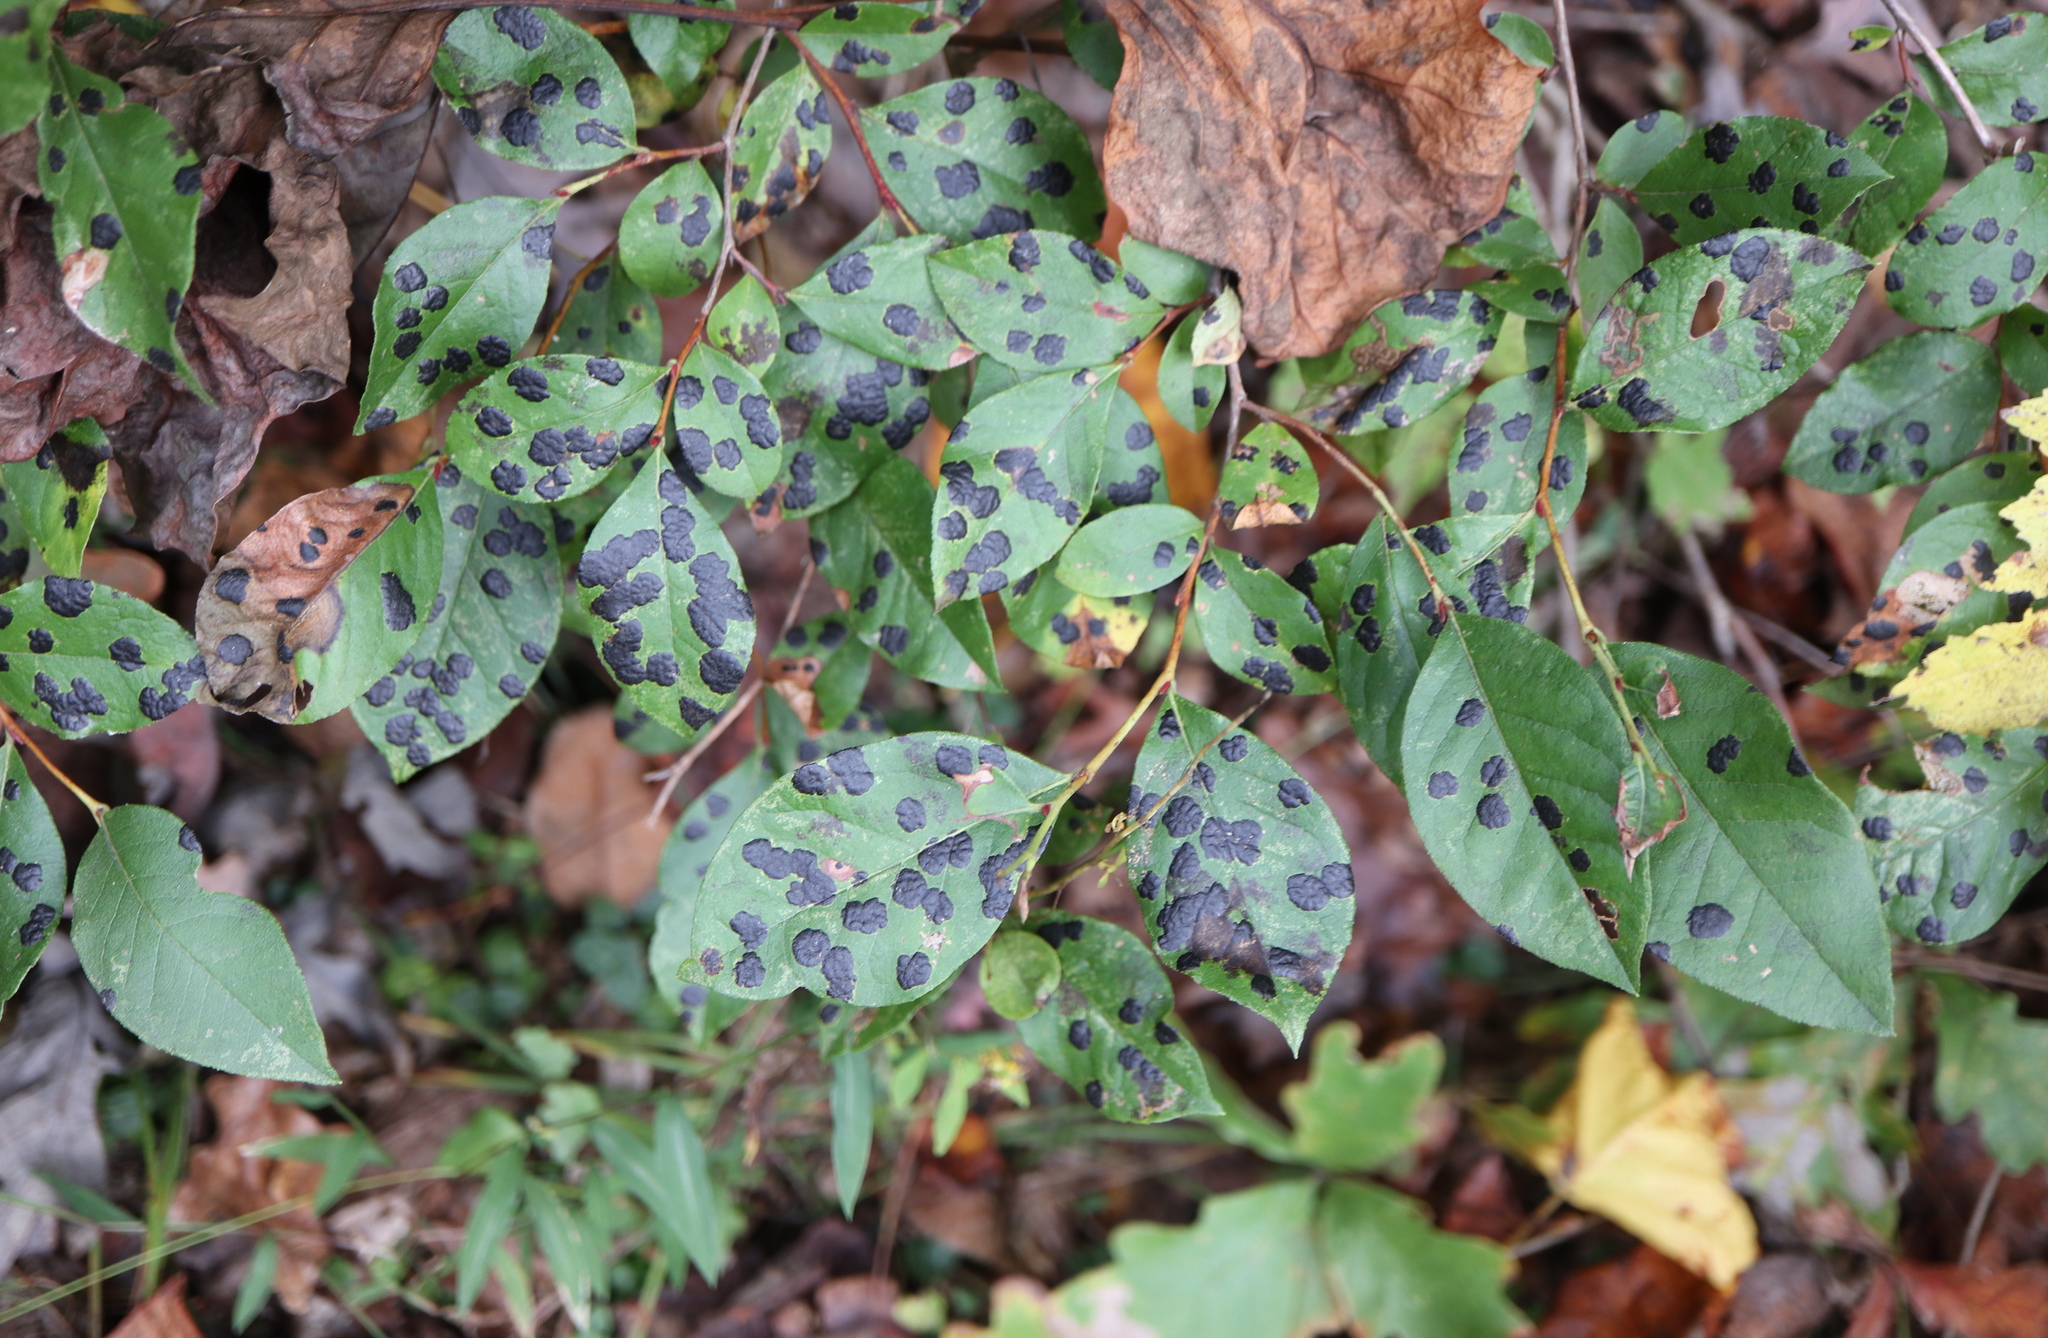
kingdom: Plantae
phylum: Tracheophyta
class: Magnoliopsida
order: Ericales
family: Ericaceae
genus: Lyonia
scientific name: Lyonia ligustrina
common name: Maleberry
